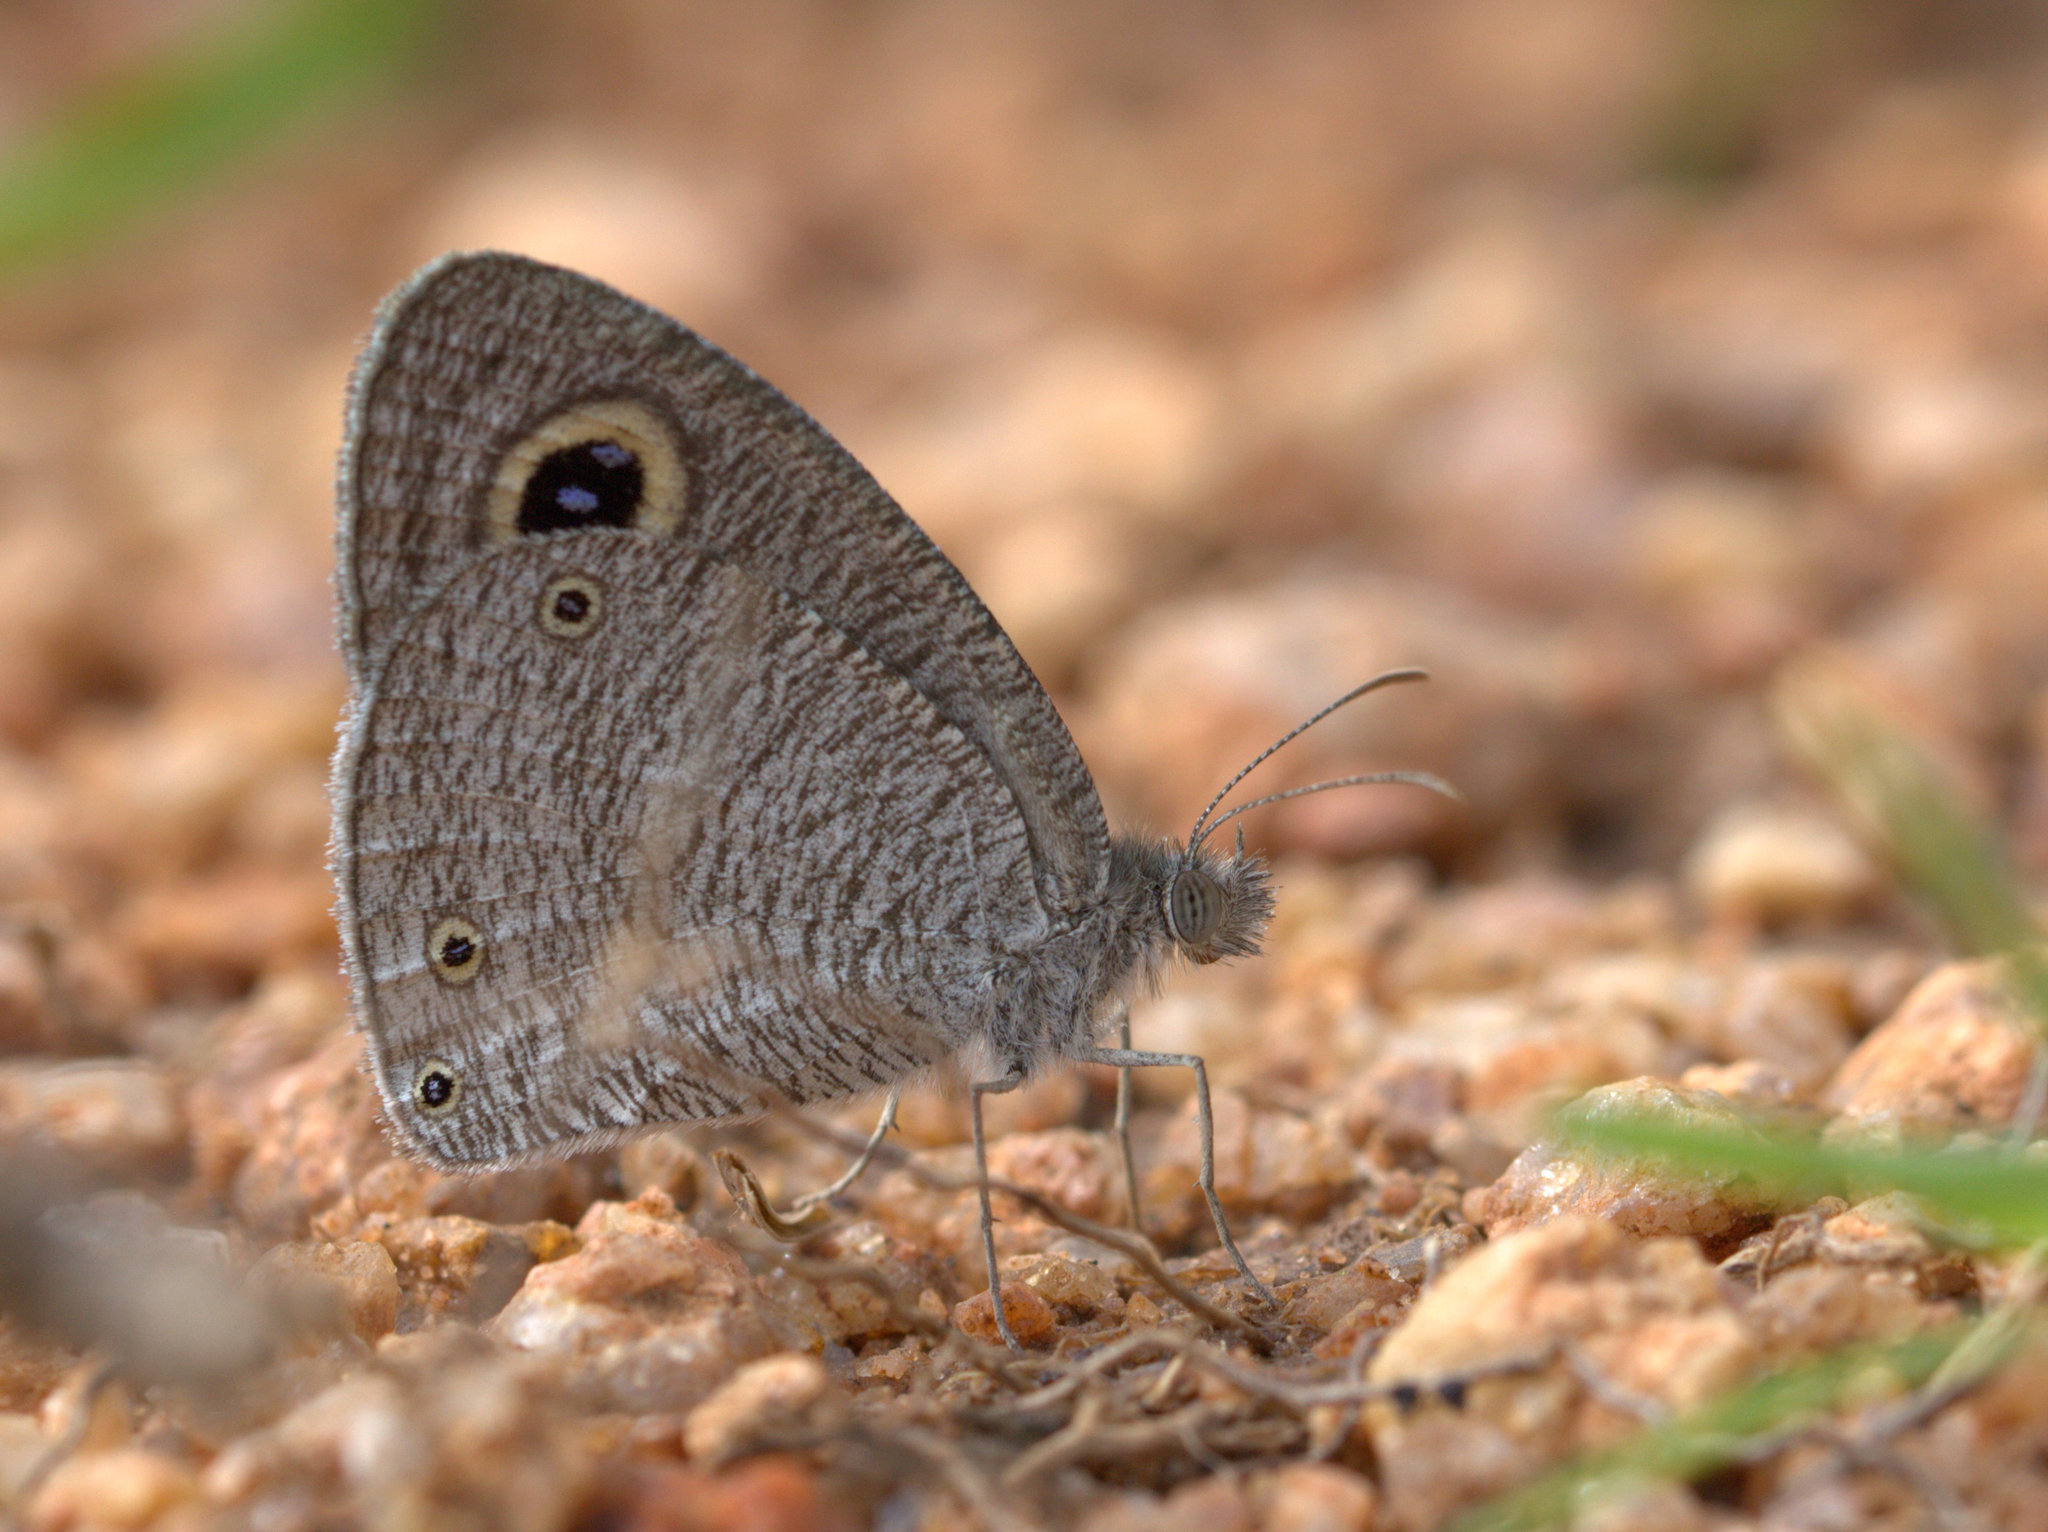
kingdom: Animalia
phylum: Arthropoda
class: Insecta
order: Lepidoptera
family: Nymphalidae
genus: Ypthima
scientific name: Ypthima asterope
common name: African ringlet
